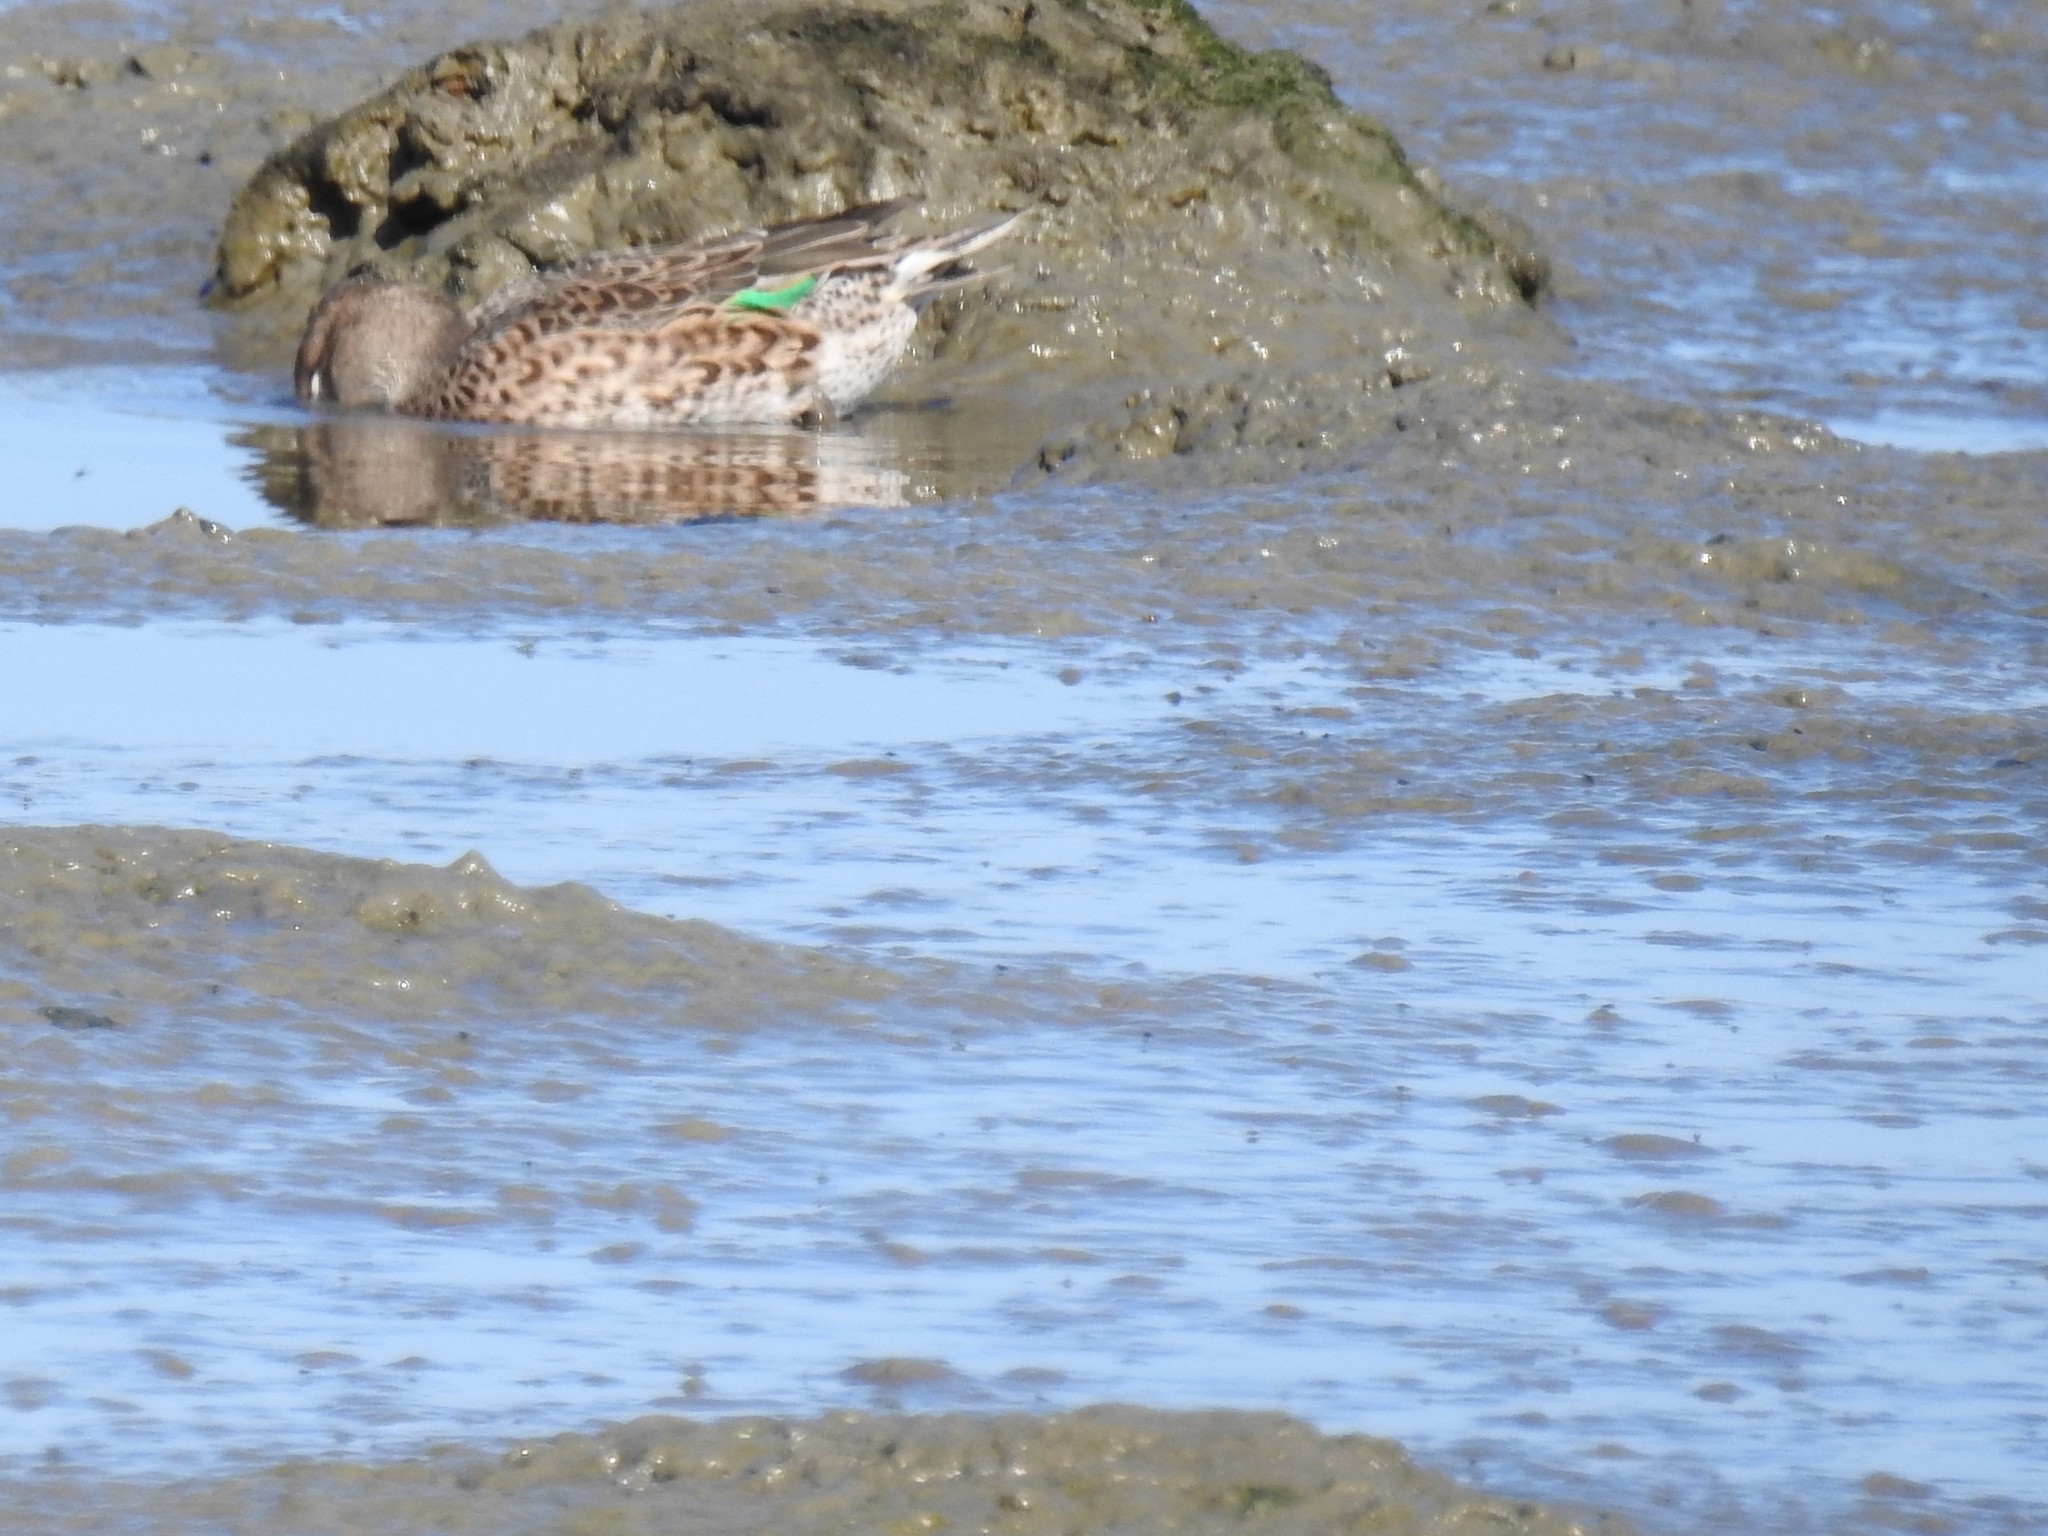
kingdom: Animalia
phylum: Chordata
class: Aves
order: Anseriformes
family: Anatidae
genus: Anas
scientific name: Anas crecca
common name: Eurasian teal
